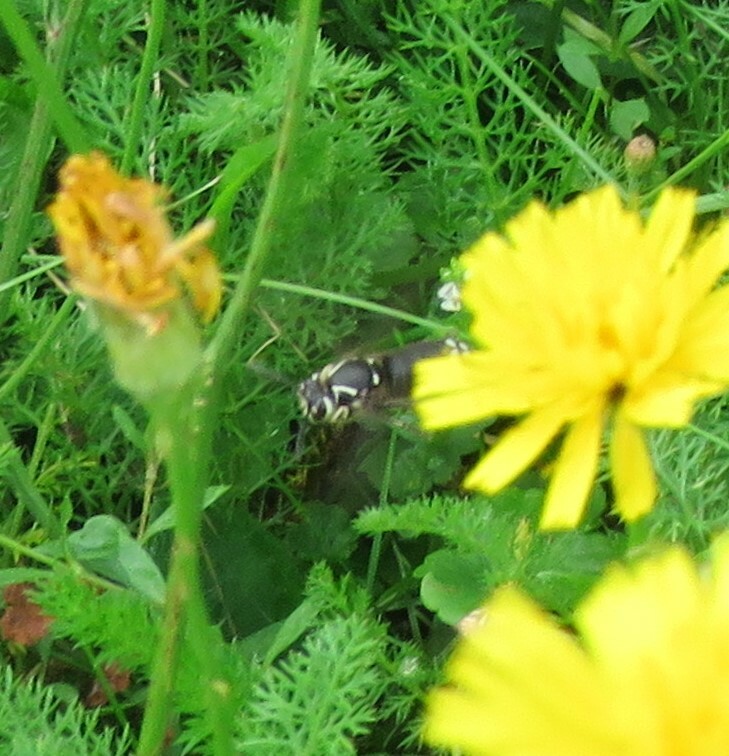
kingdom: Animalia
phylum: Arthropoda
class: Insecta
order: Hymenoptera
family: Vespidae
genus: Dolichovespula
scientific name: Dolichovespula maculata
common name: Bald-faced hornet
